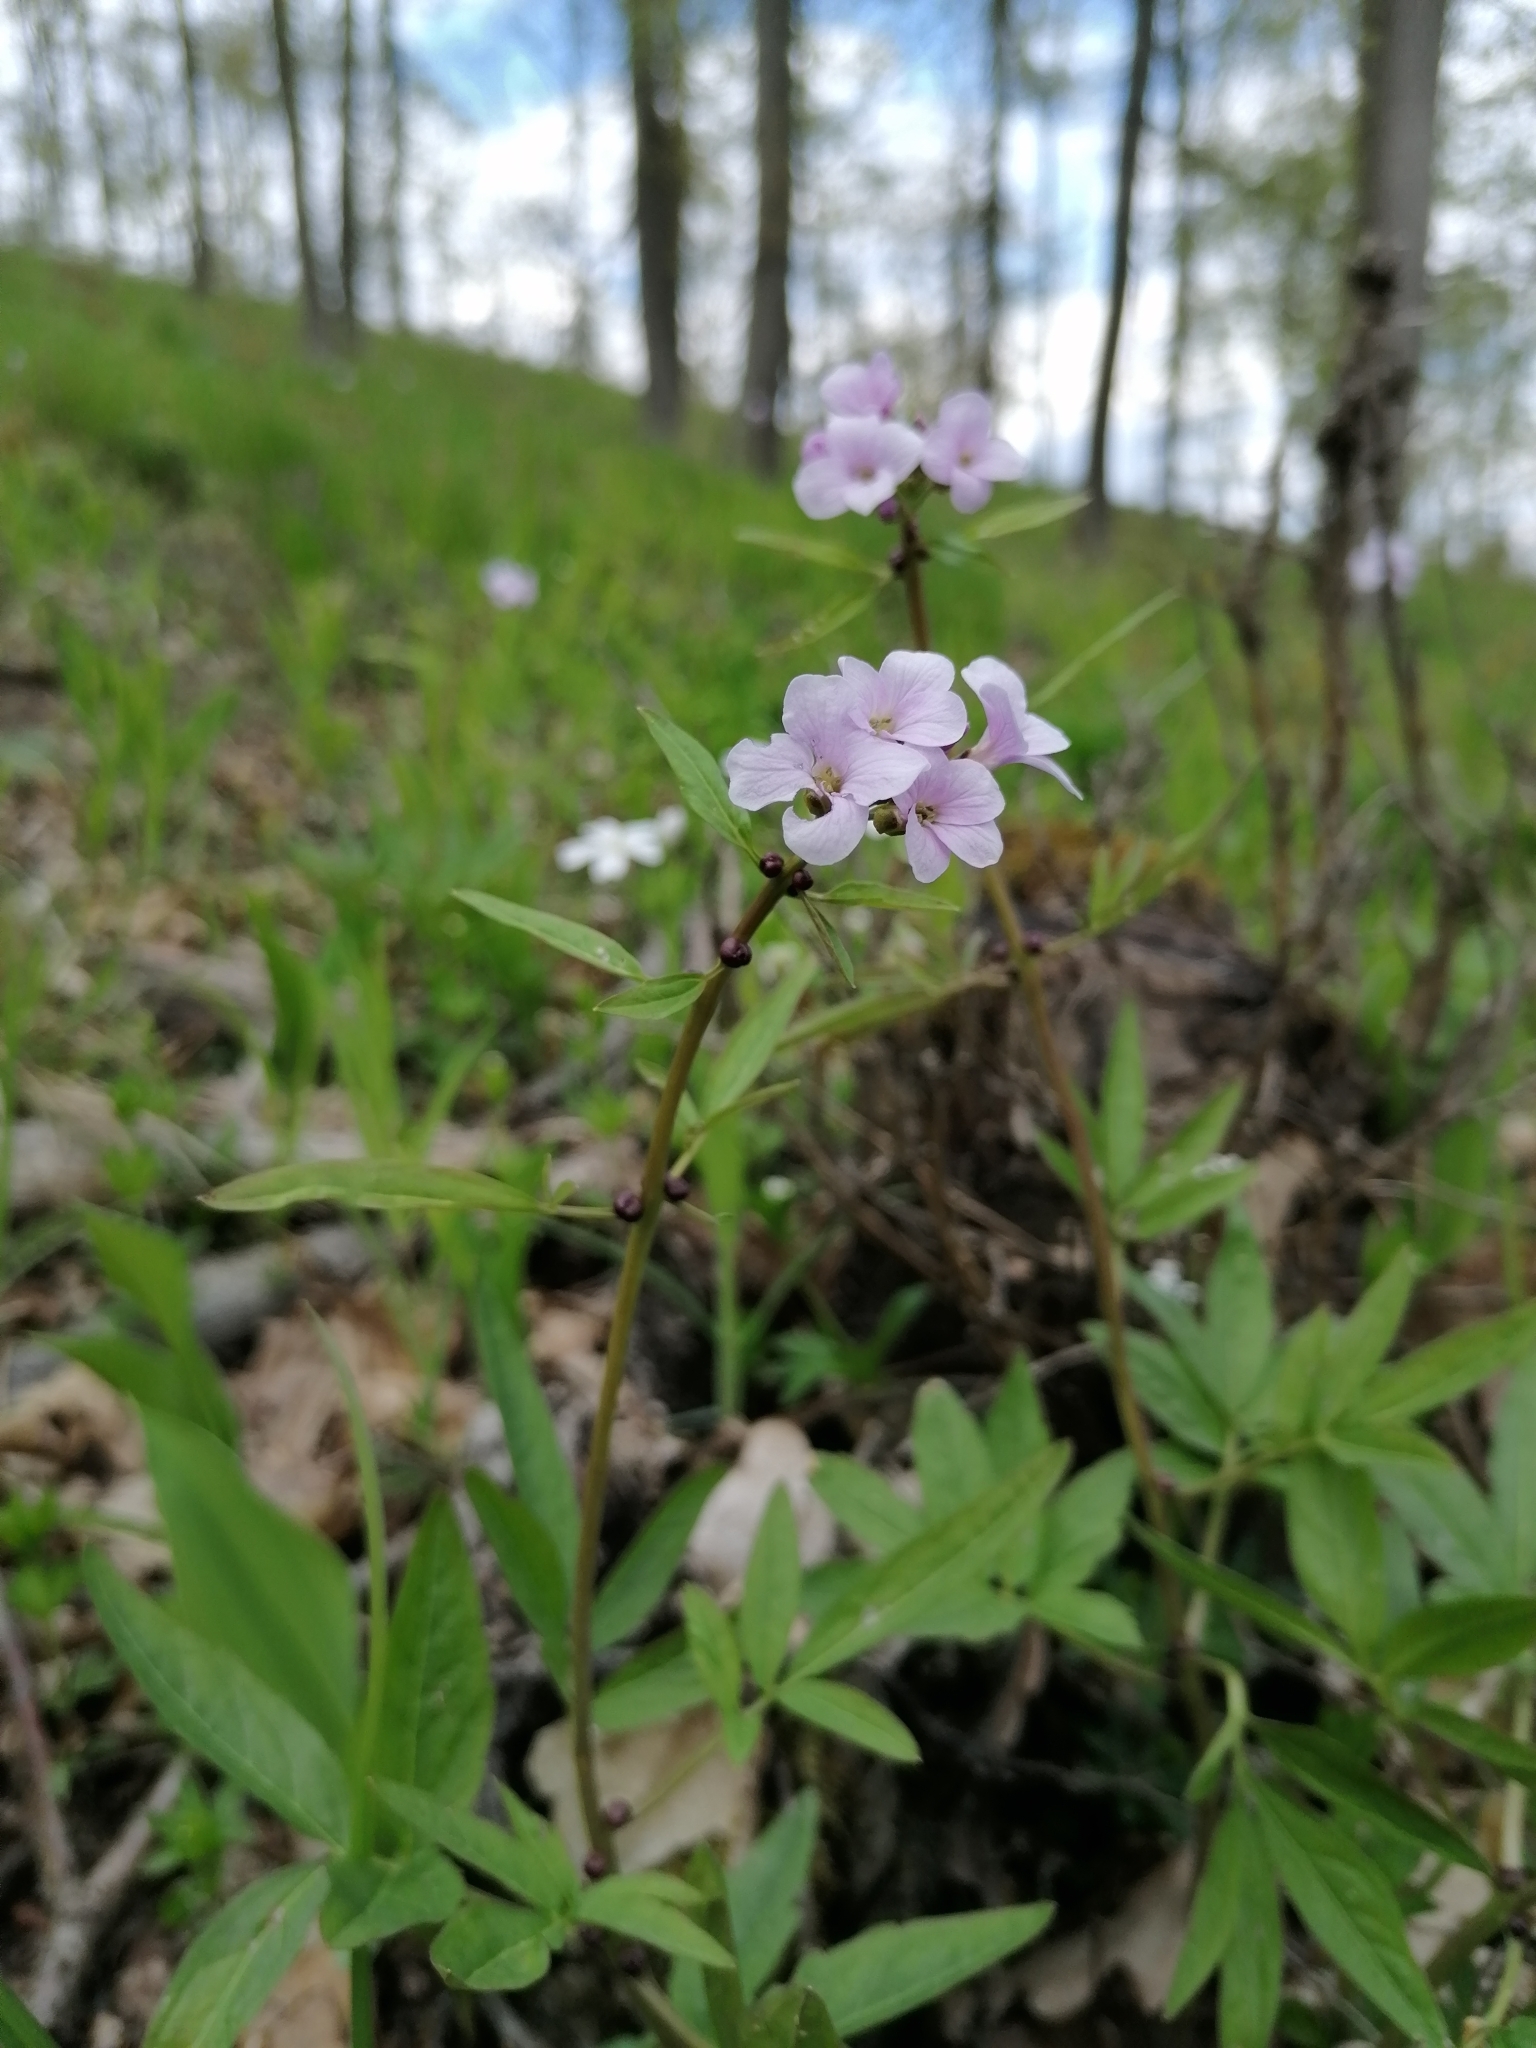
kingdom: Plantae
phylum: Tracheophyta
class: Magnoliopsida
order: Brassicales
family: Brassicaceae
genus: Cardamine
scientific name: Cardamine bulbifera
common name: Coralroot bittercress
